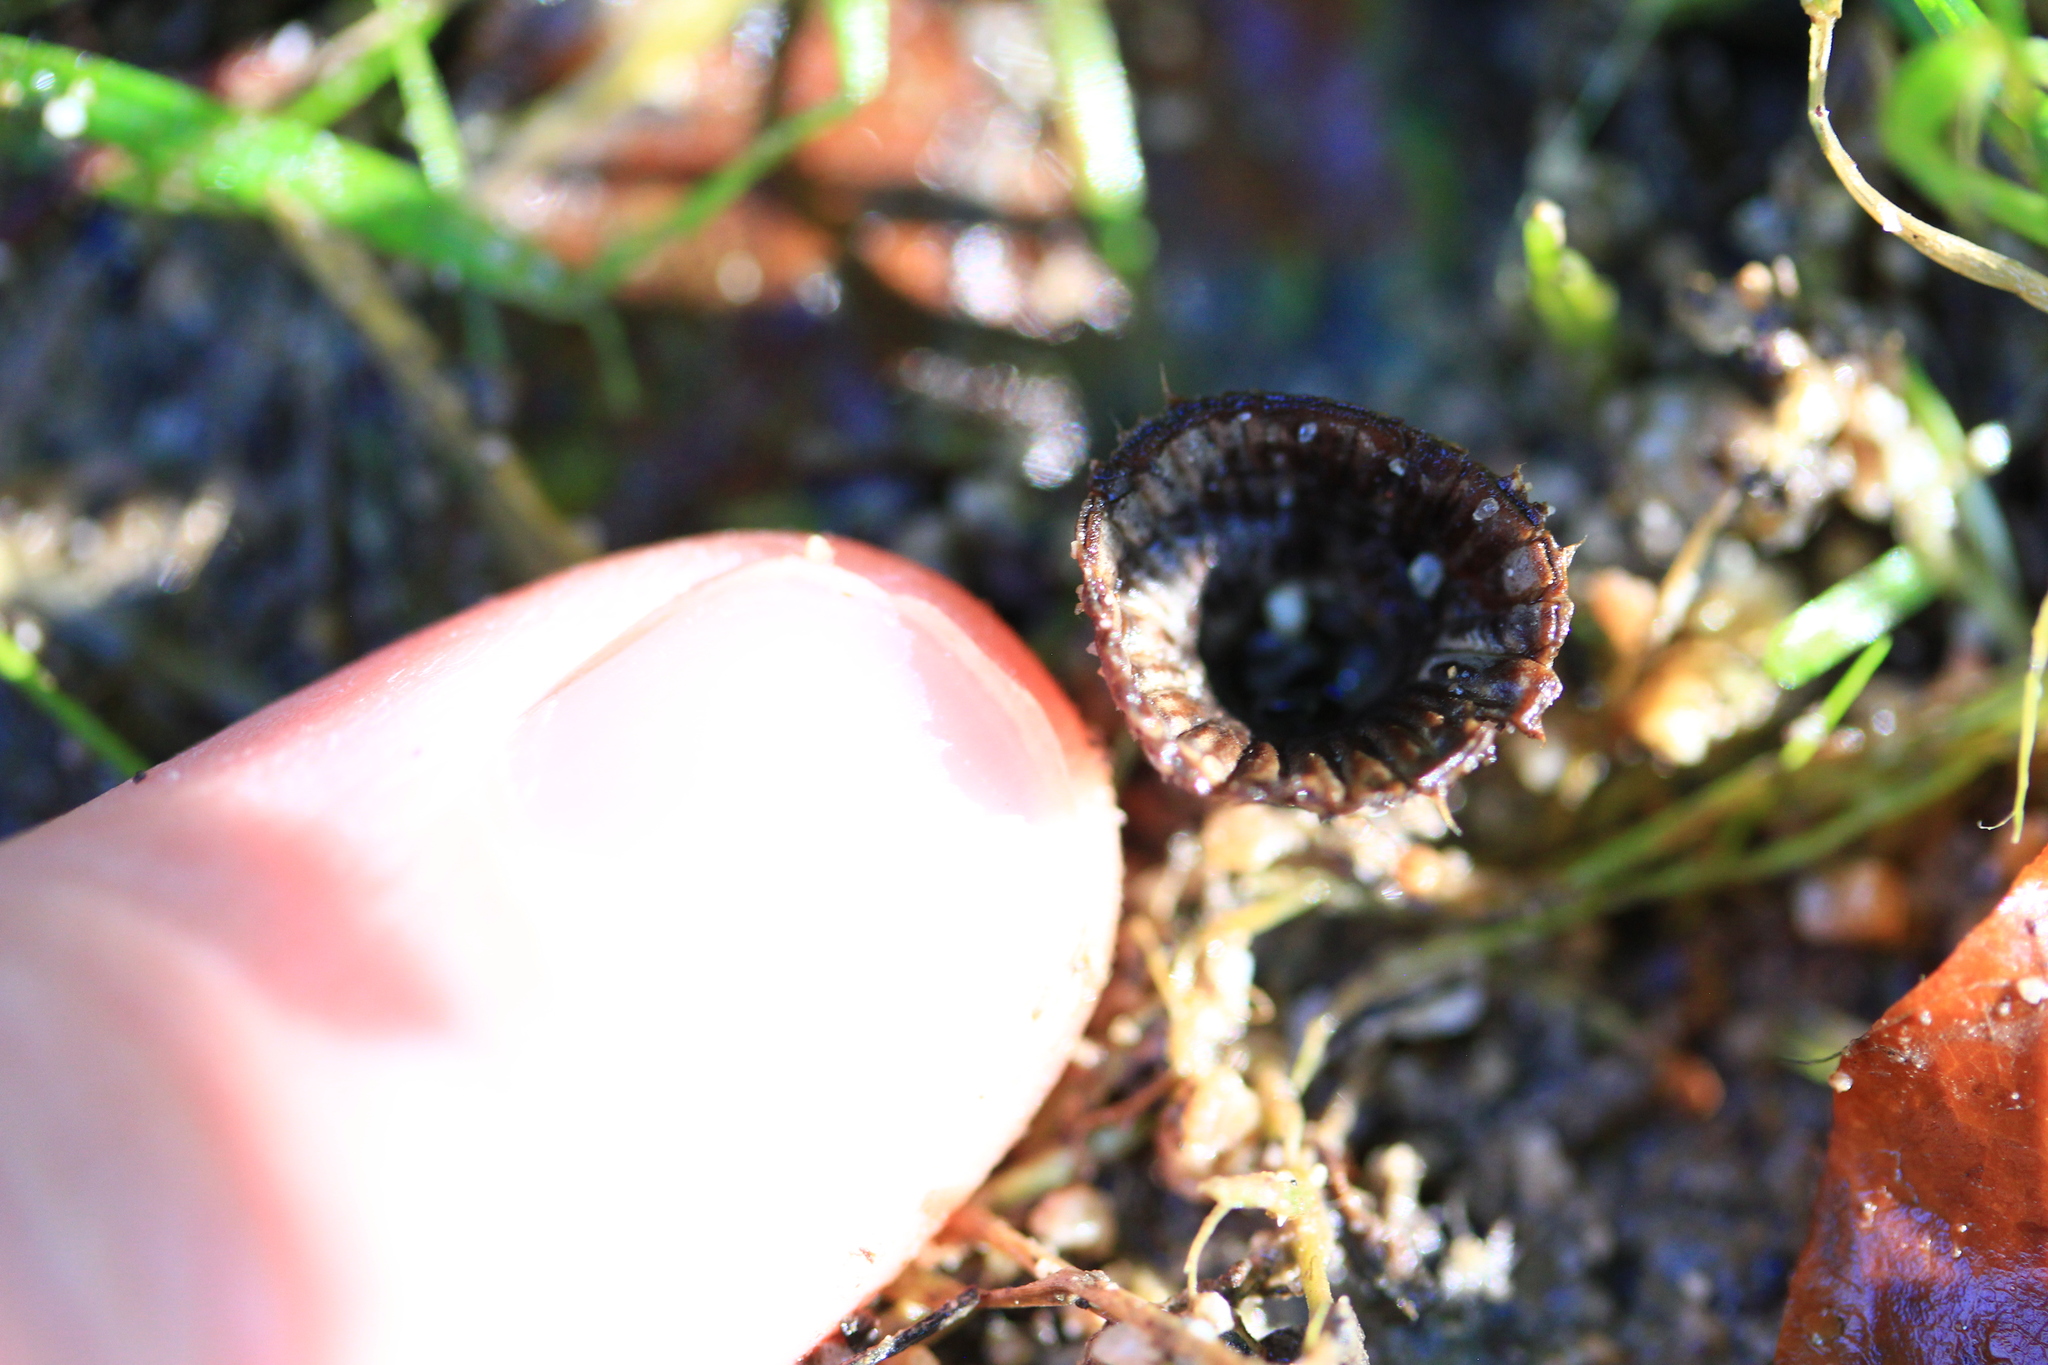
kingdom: Fungi
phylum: Basidiomycota
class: Agaricomycetes
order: Agaricales
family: Agaricaceae
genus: Cyathus
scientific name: Cyathus striatus
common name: Fluted bird's nest
